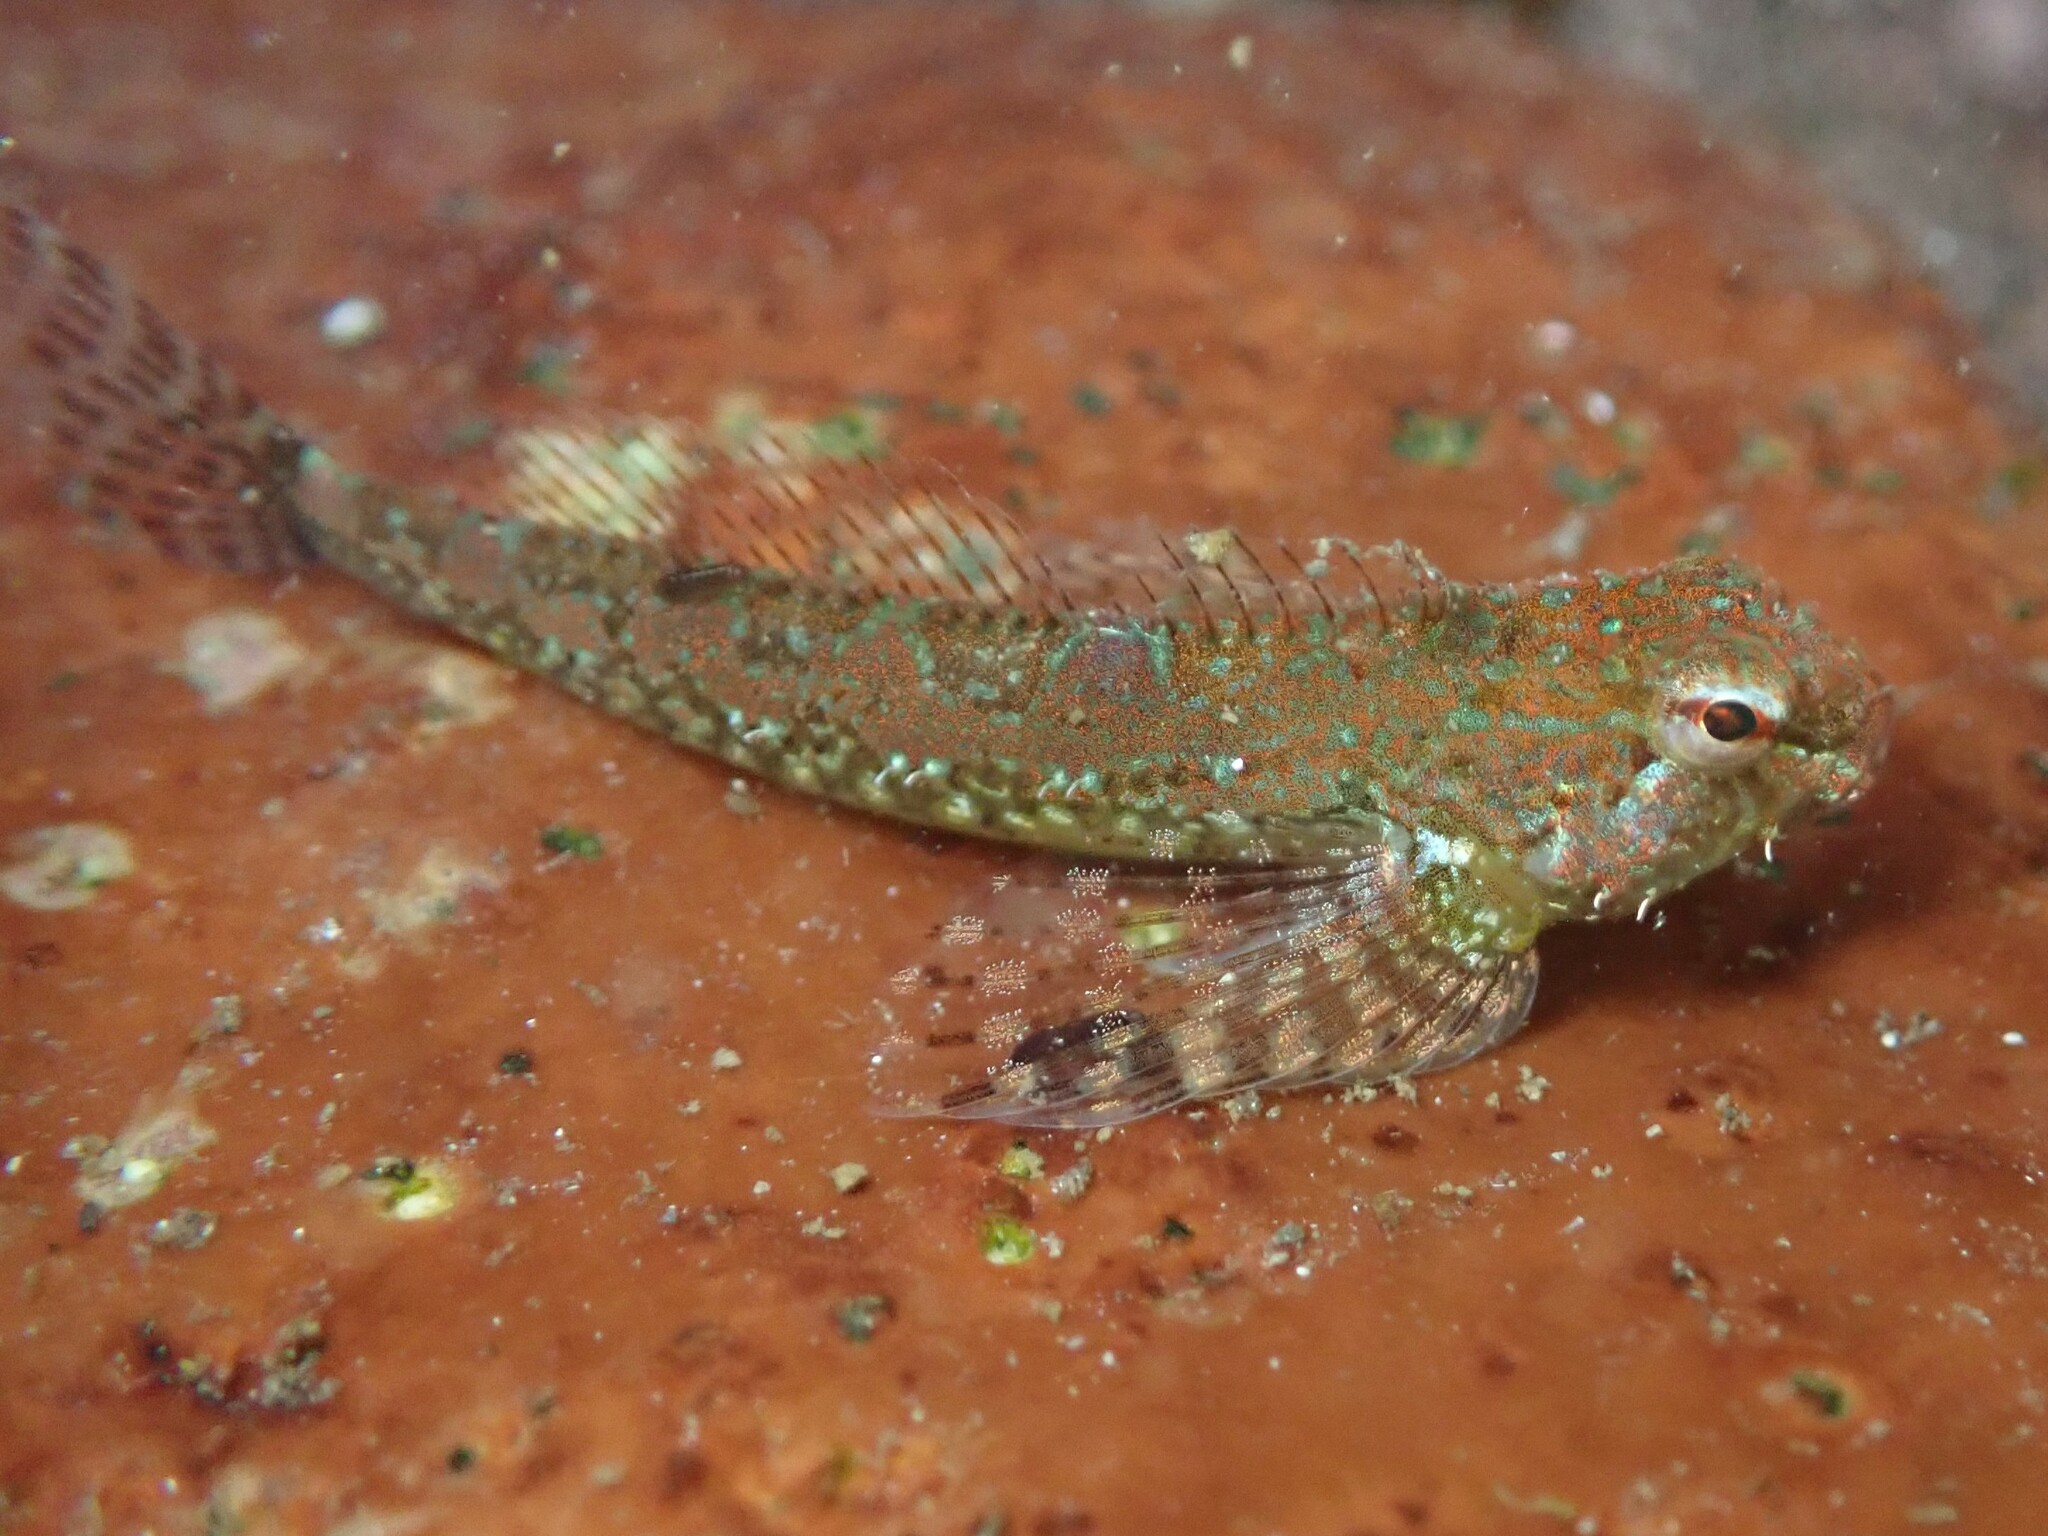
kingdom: Animalia
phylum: Chordata
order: Scorpaeniformes
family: Cottidae
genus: Oligocottus
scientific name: Oligocottus rimensis
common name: Saddleback sculpin
